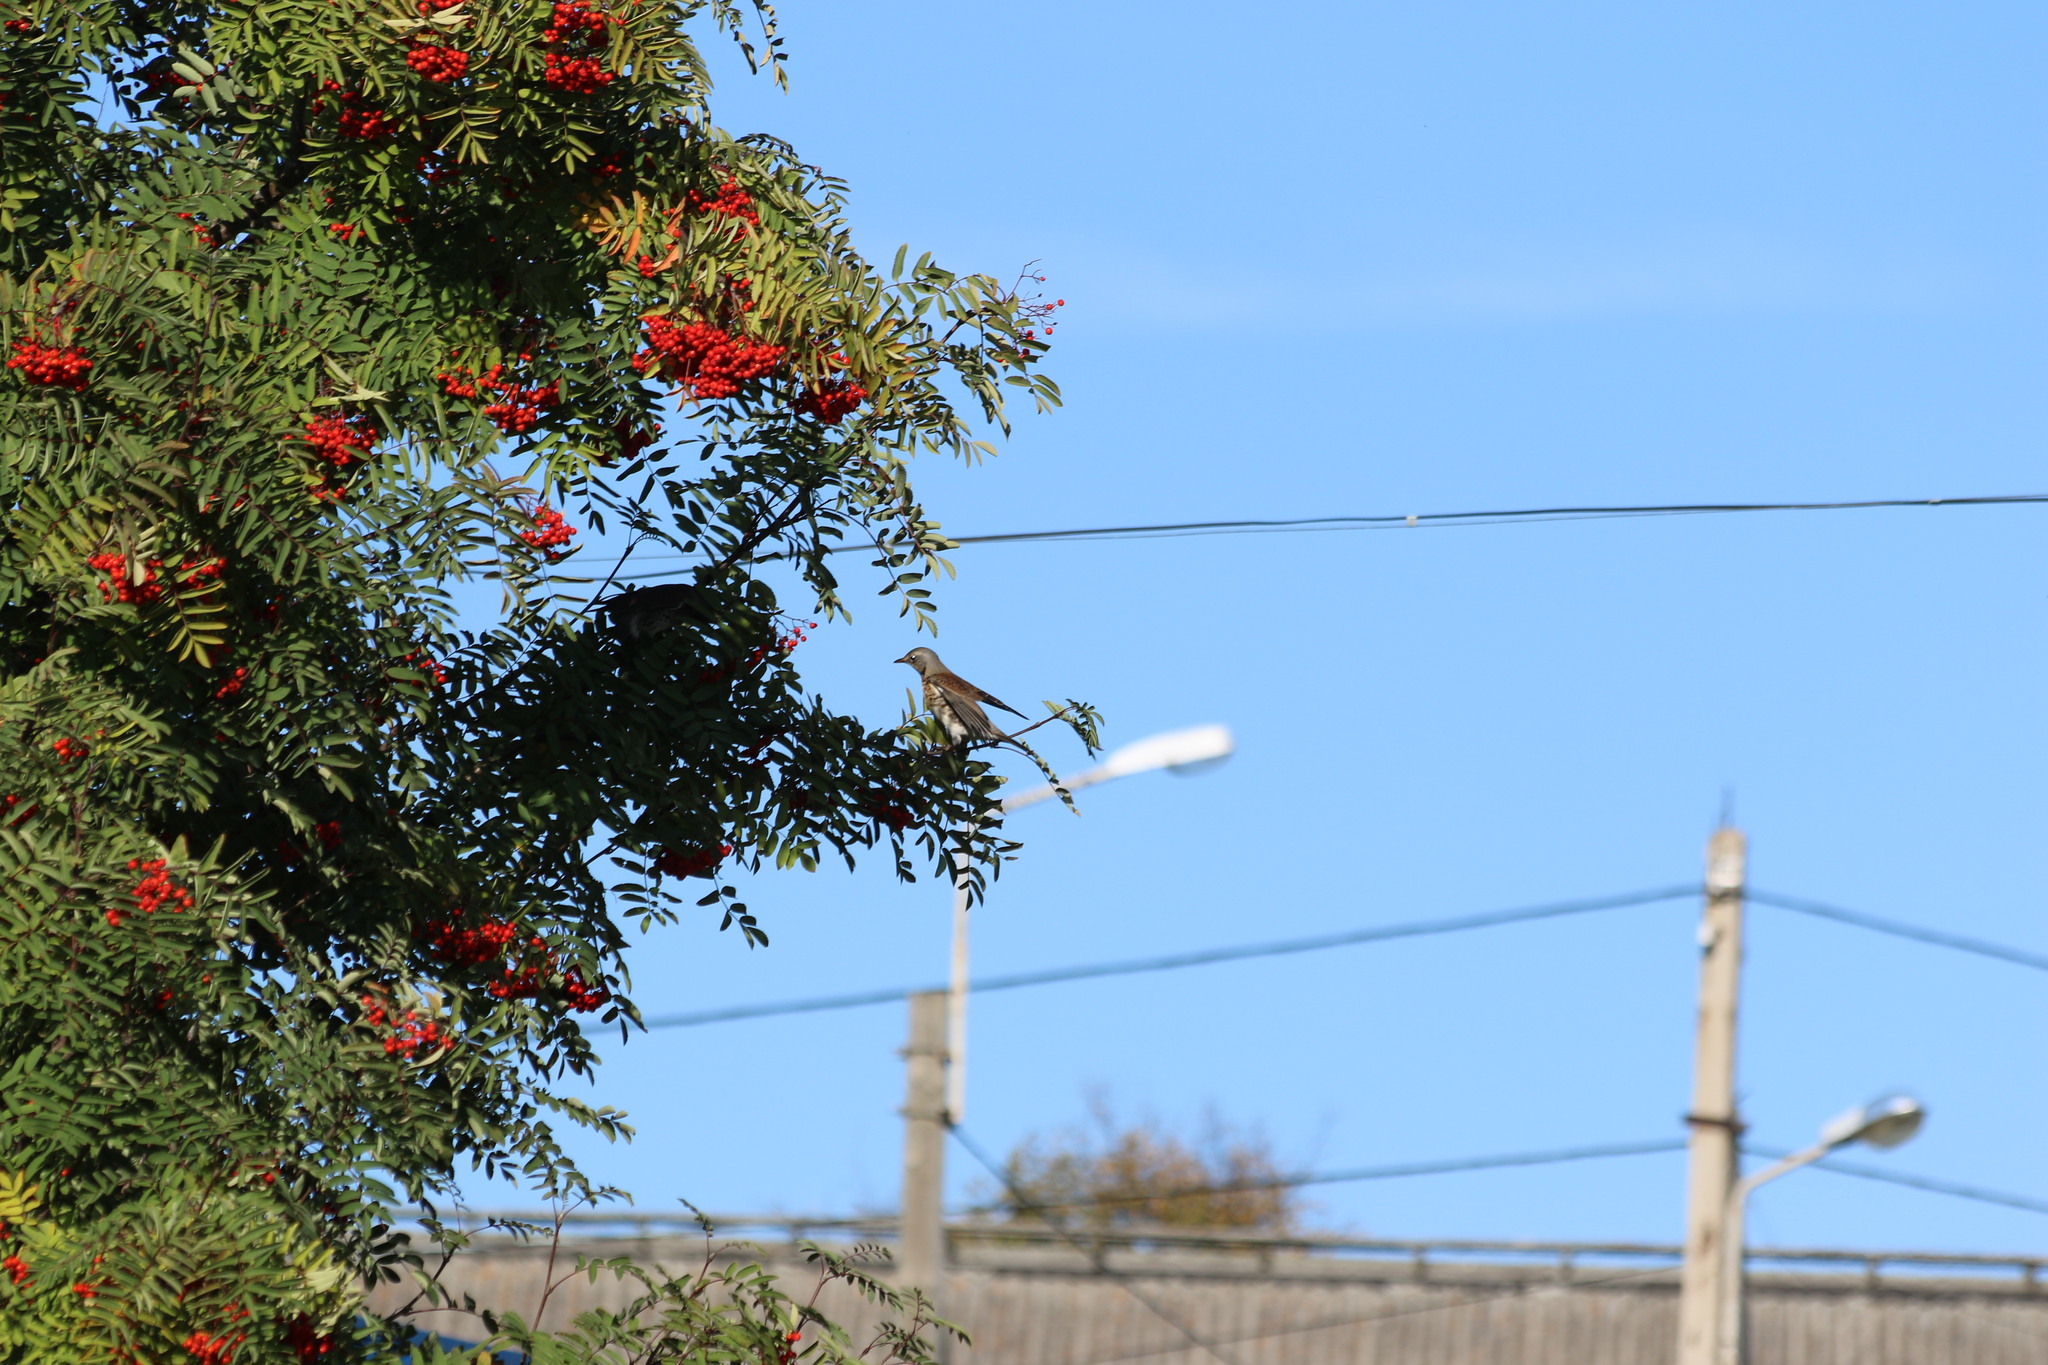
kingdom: Animalia
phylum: Chordata
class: Aves
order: Passeriformes
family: Turdidae
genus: Turdus
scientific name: Turdus pilaris
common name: Fieldfare
